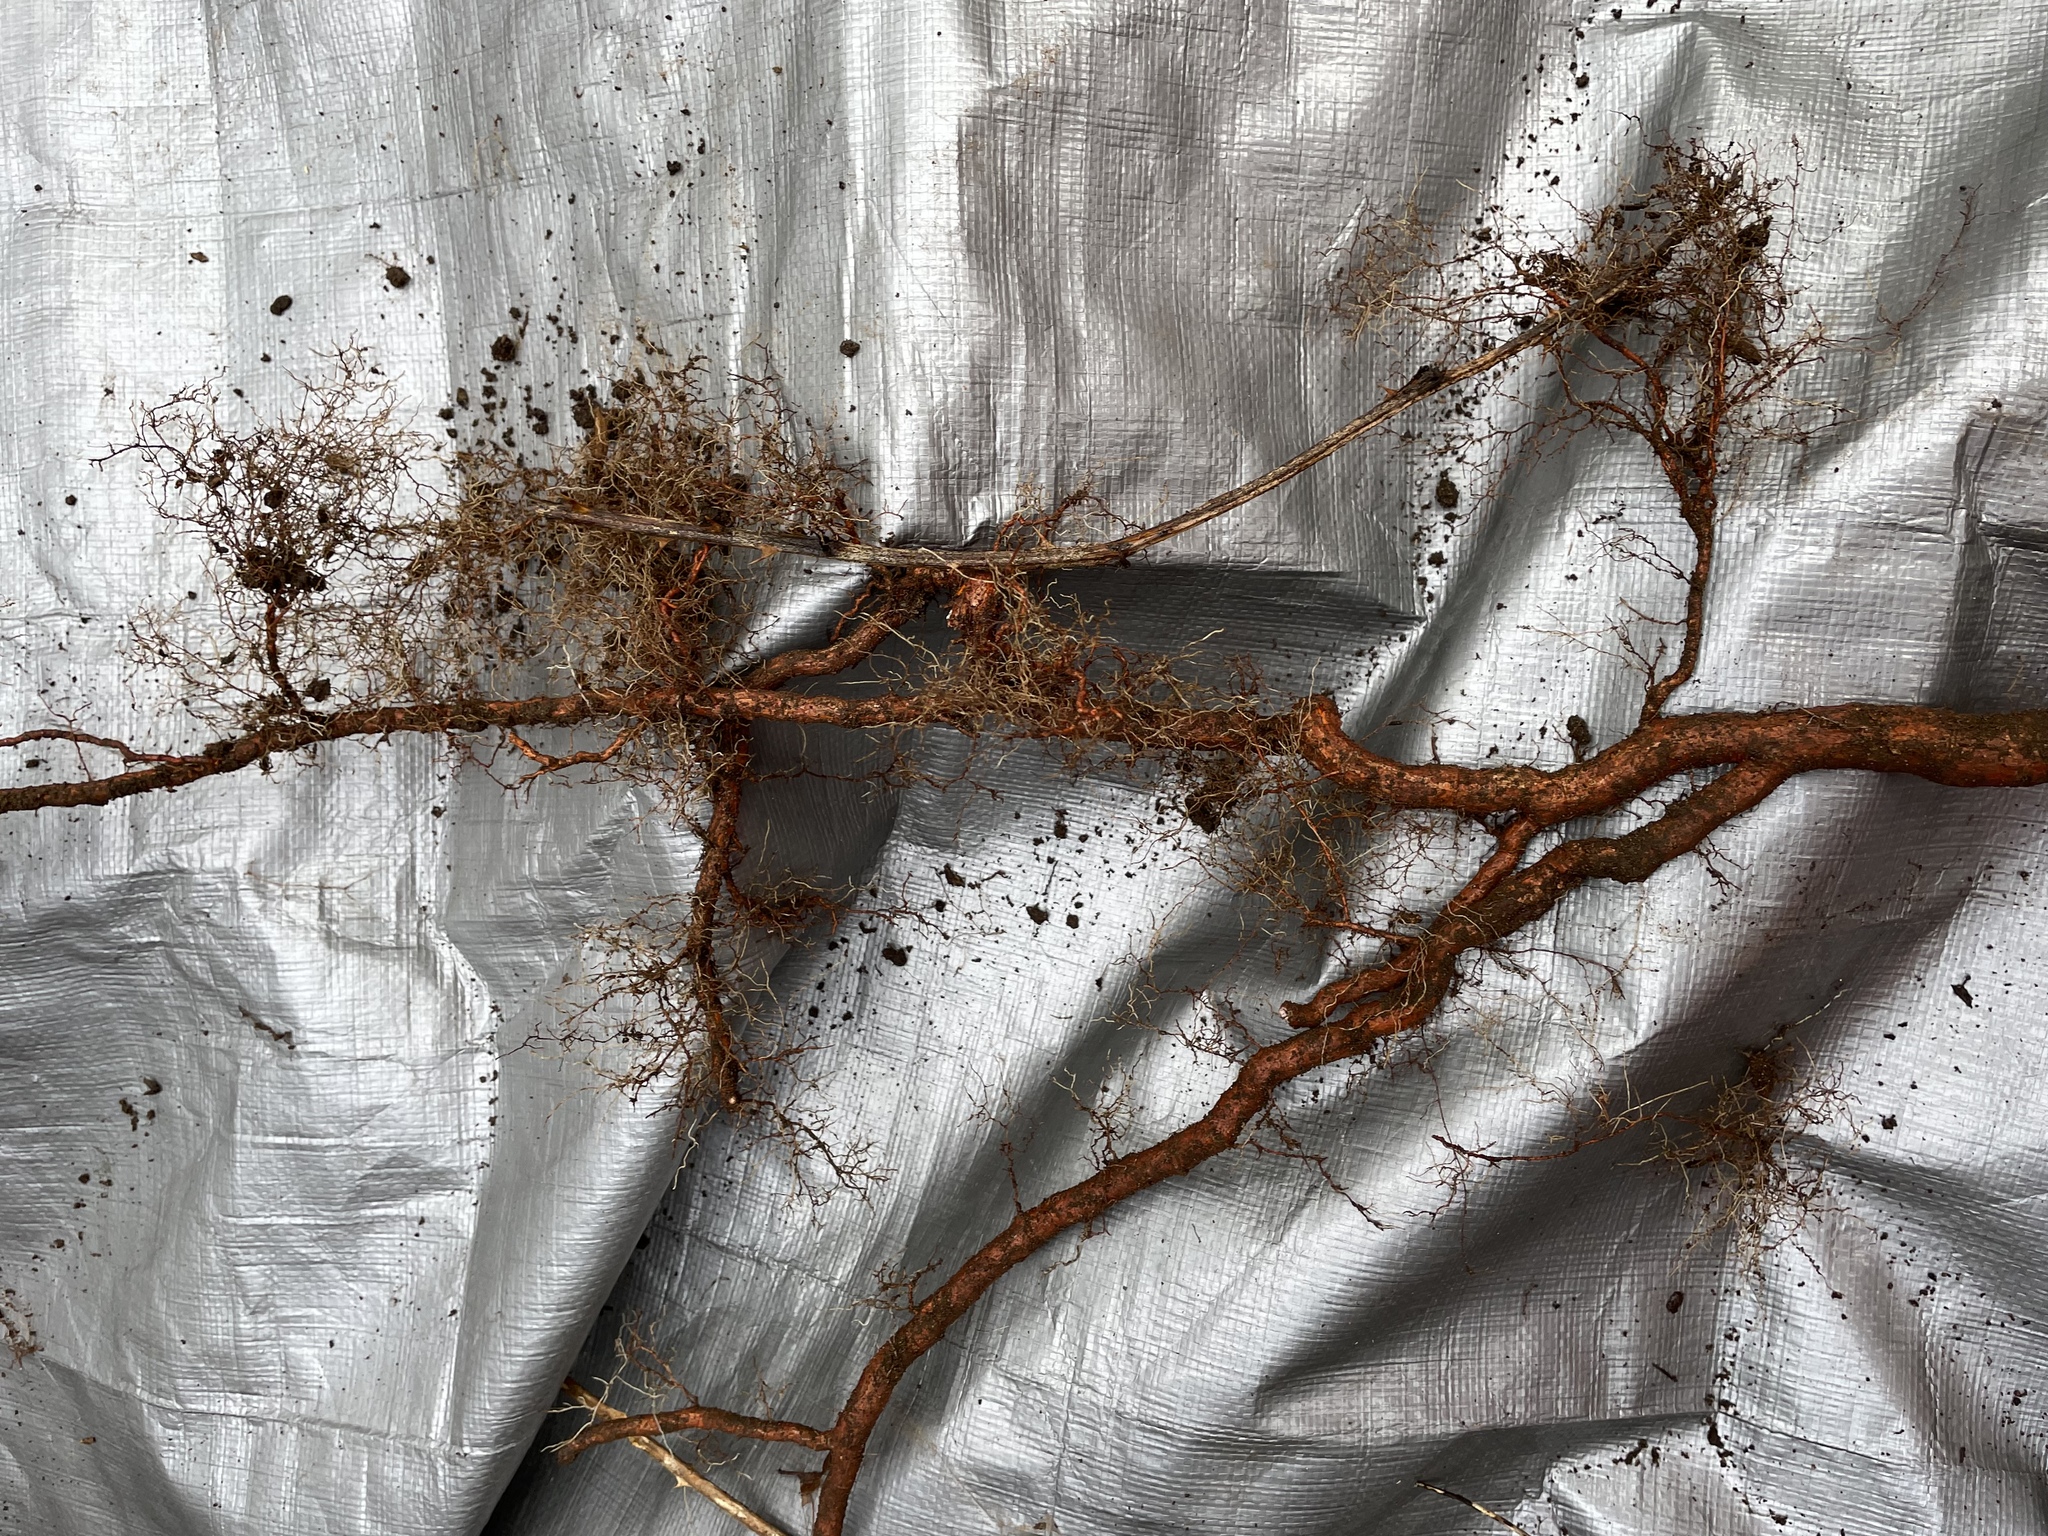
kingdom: Plantae
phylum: Tracheophyta
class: Magnoliopsida
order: Celastrales
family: Celastraceae
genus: Celastrus
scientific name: Celastrus orbiculatus
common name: Oriental bittersweet
